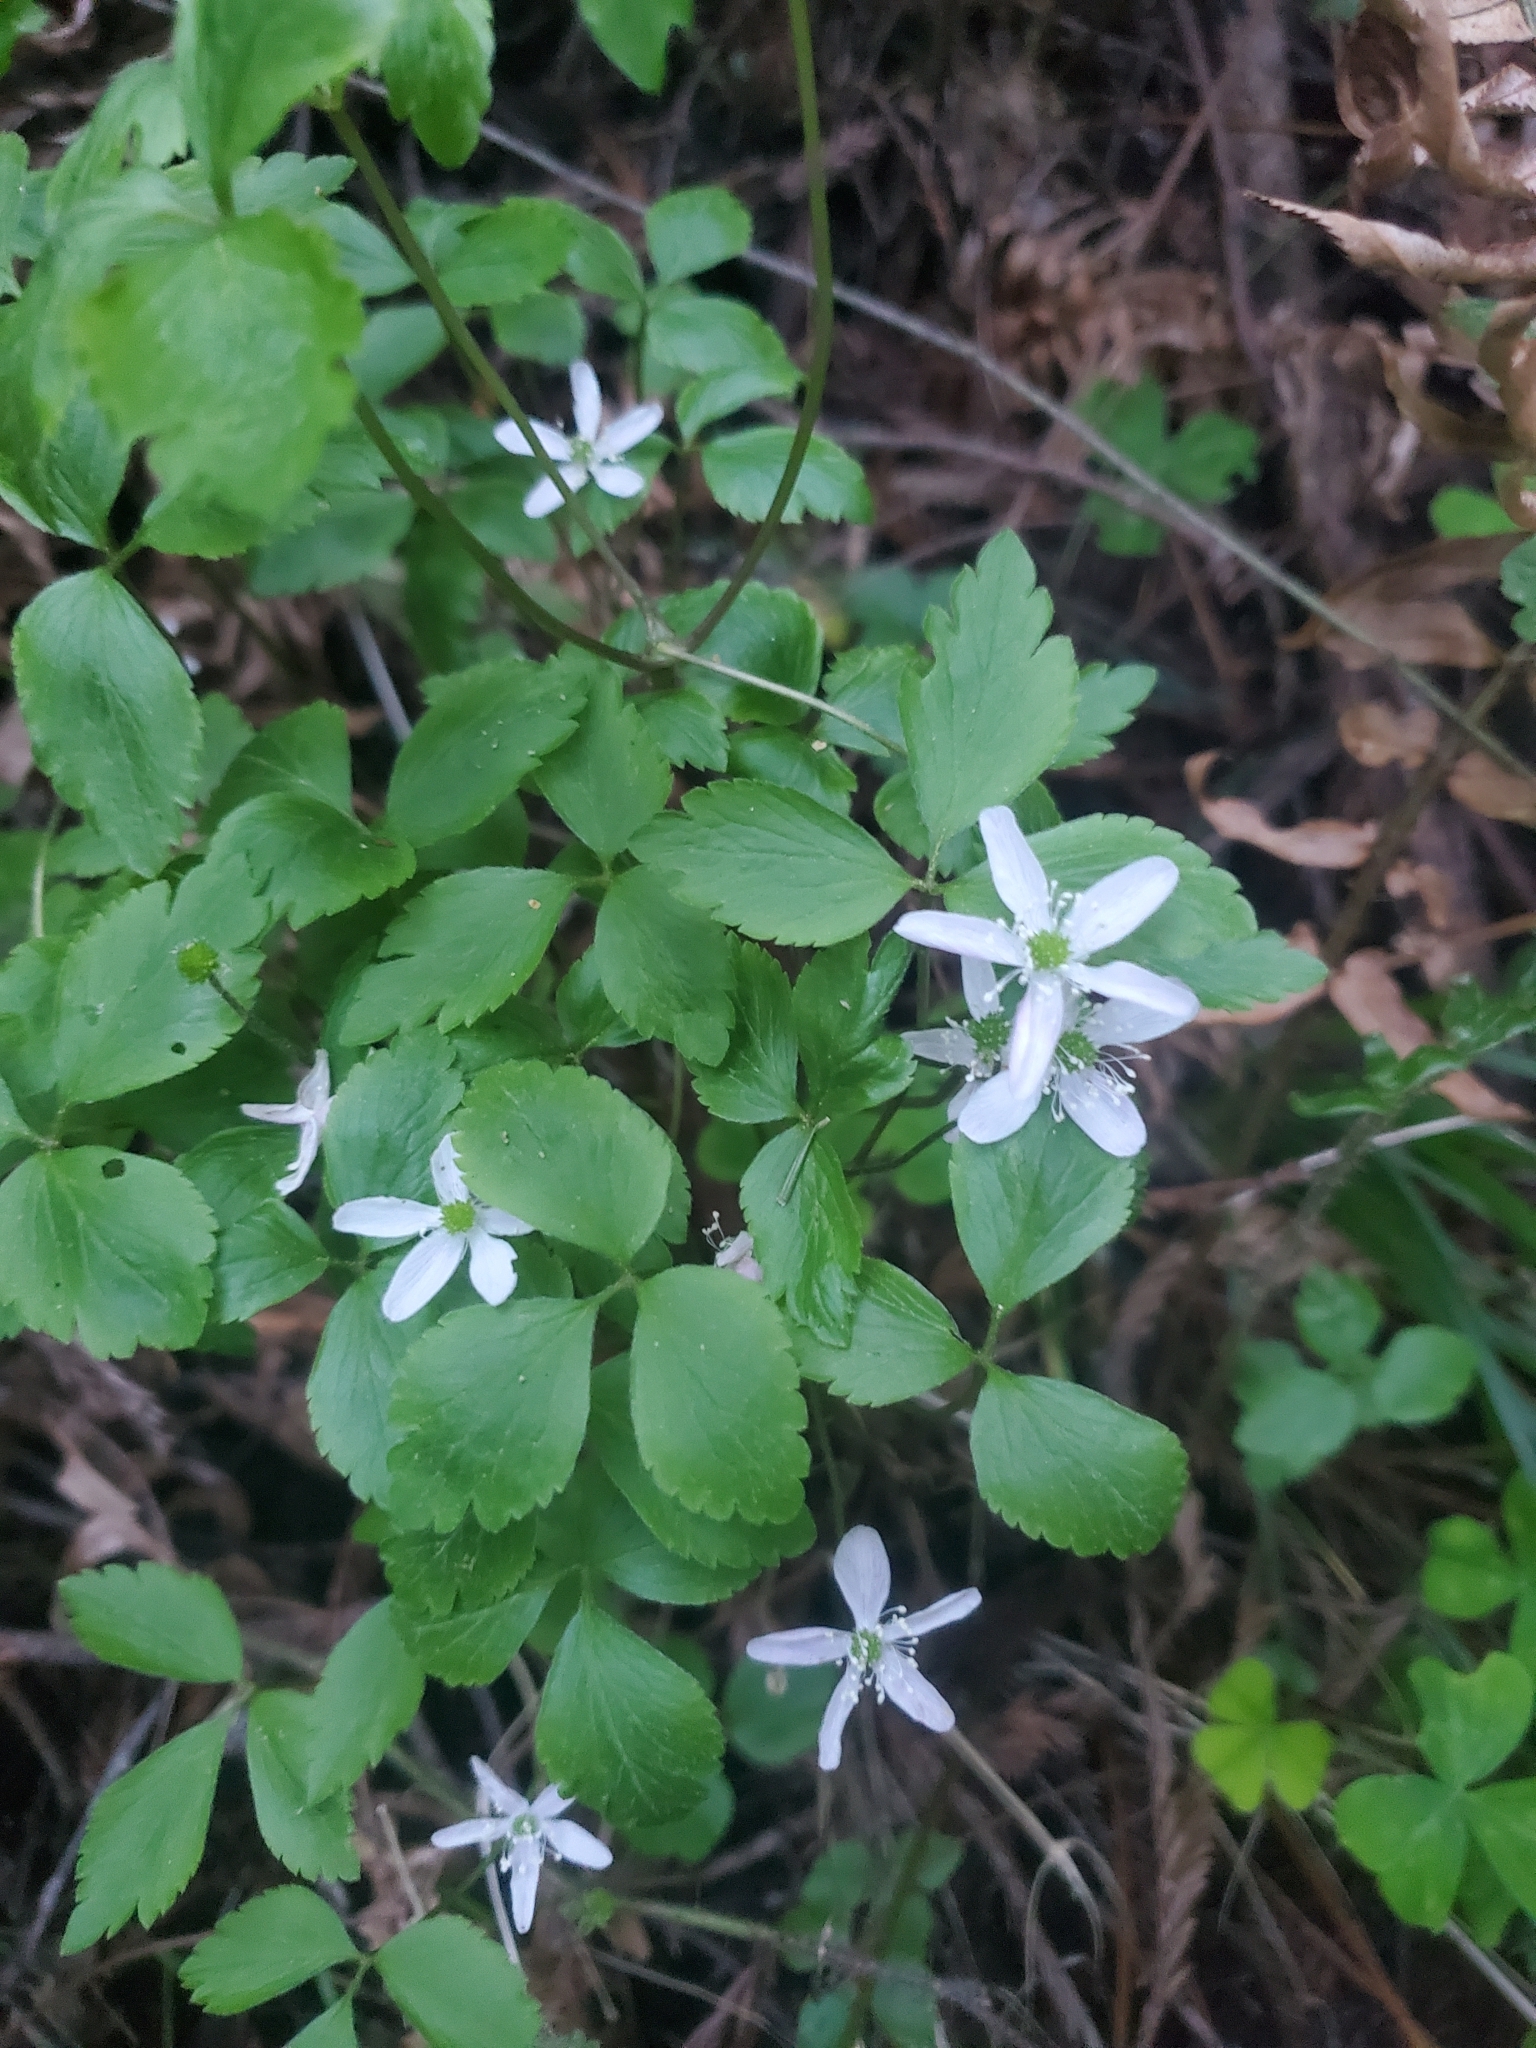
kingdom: Plantae
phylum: Tracheophyta
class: Magnoliopsida
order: Ranunculales
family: Ranunculaceae
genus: Anemone
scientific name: Anemone
